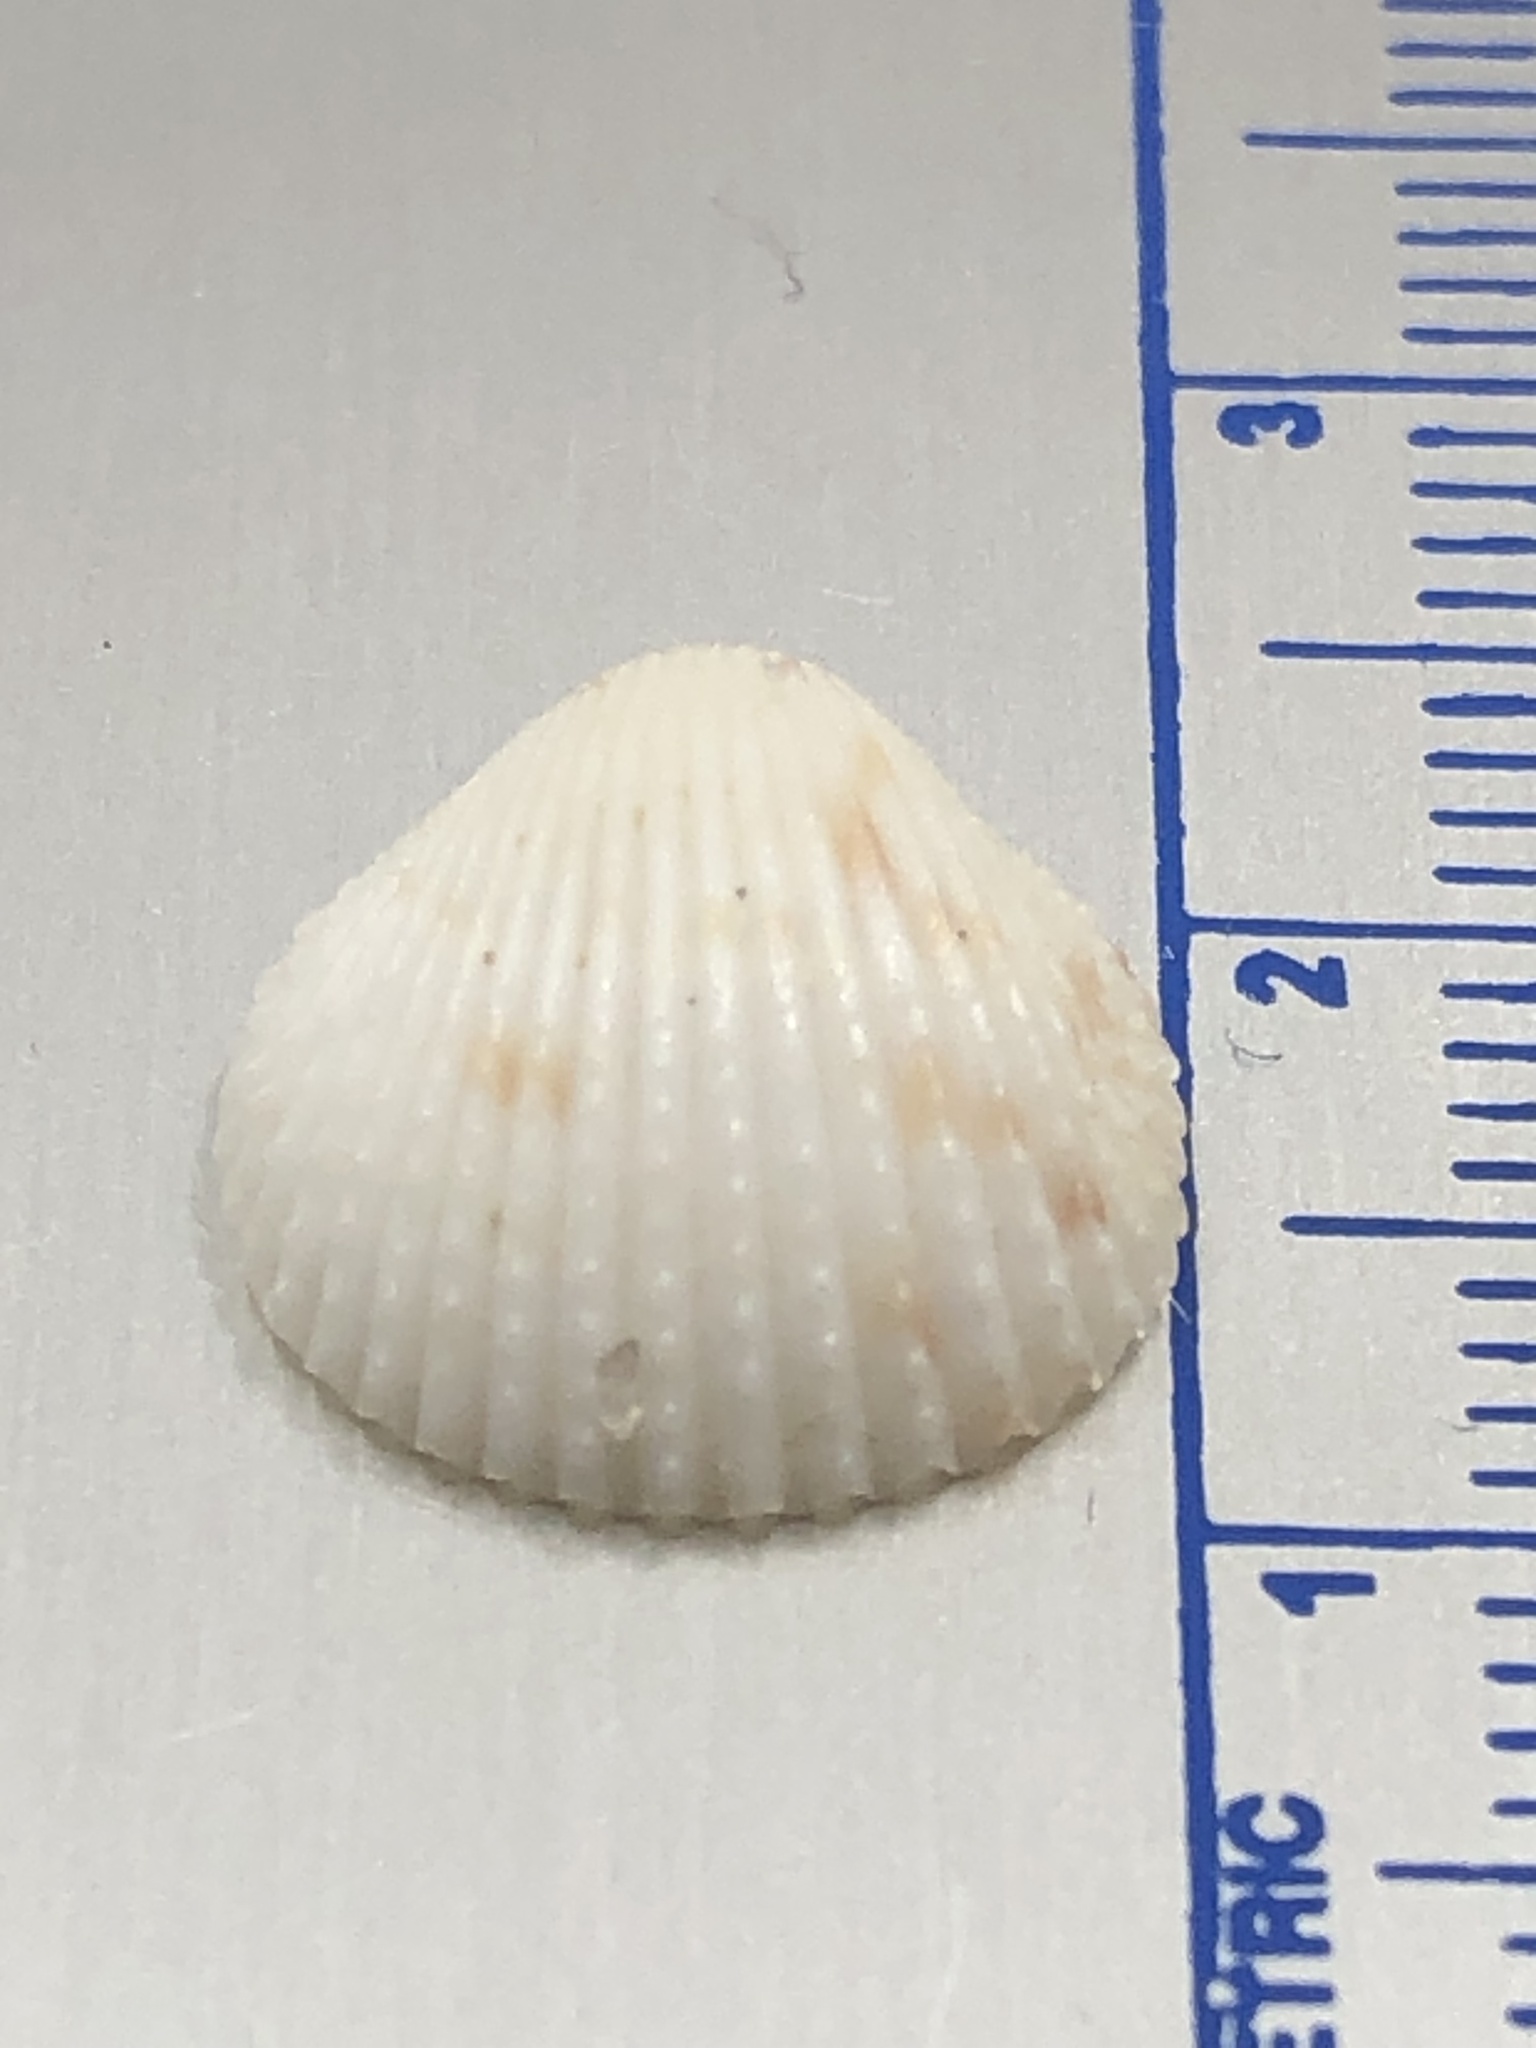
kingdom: Animalia
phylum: Mollusca
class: Bivalvia
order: Cardiida
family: Cardiidae
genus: Trachycardium
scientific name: Trachycardium egmontianum
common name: Florida pricklycockle
